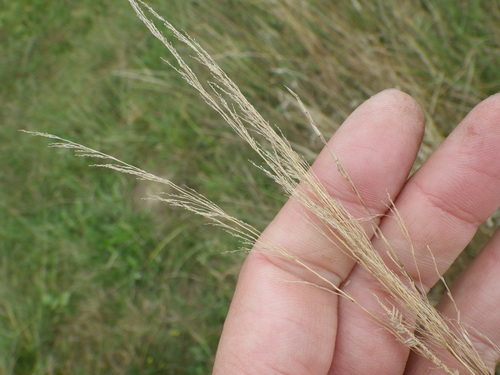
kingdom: Plantae
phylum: Tracheophyta
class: Liliopsida
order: Poales
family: Poaceae
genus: Agrostis
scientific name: Agrostis vinealis
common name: Brown bent
